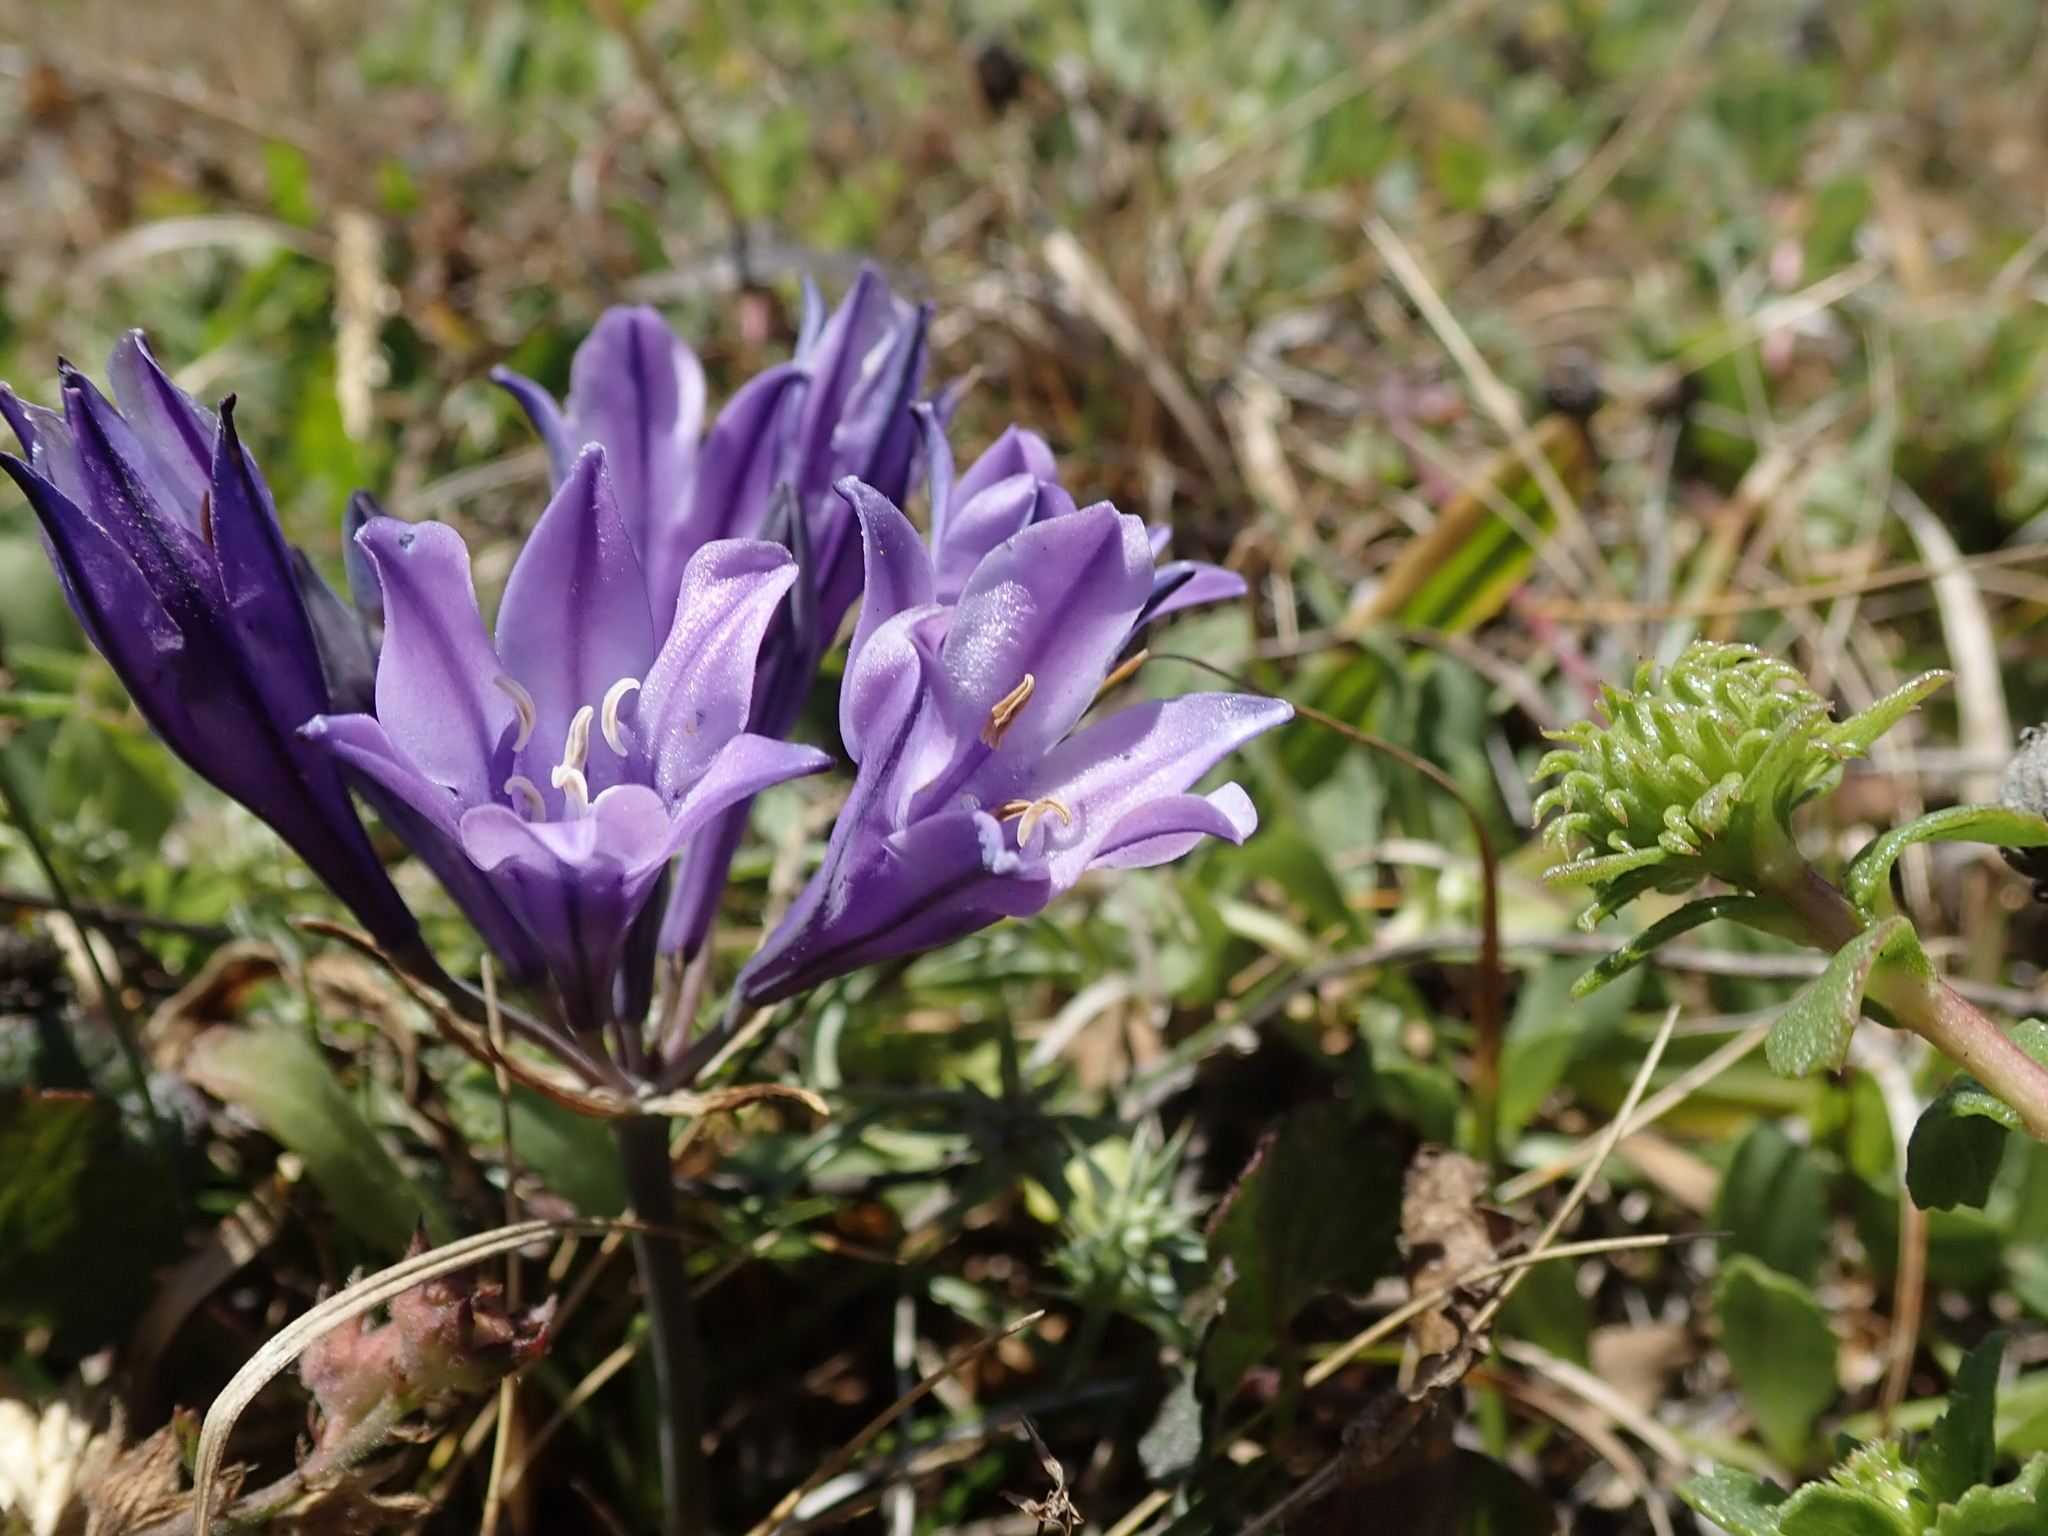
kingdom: Plantae
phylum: Tracheophyta
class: Liliopsida
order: Asparagales
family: Asparagaceae
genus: Triteleia
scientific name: Triteleia laxa
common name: Triplet-lily
